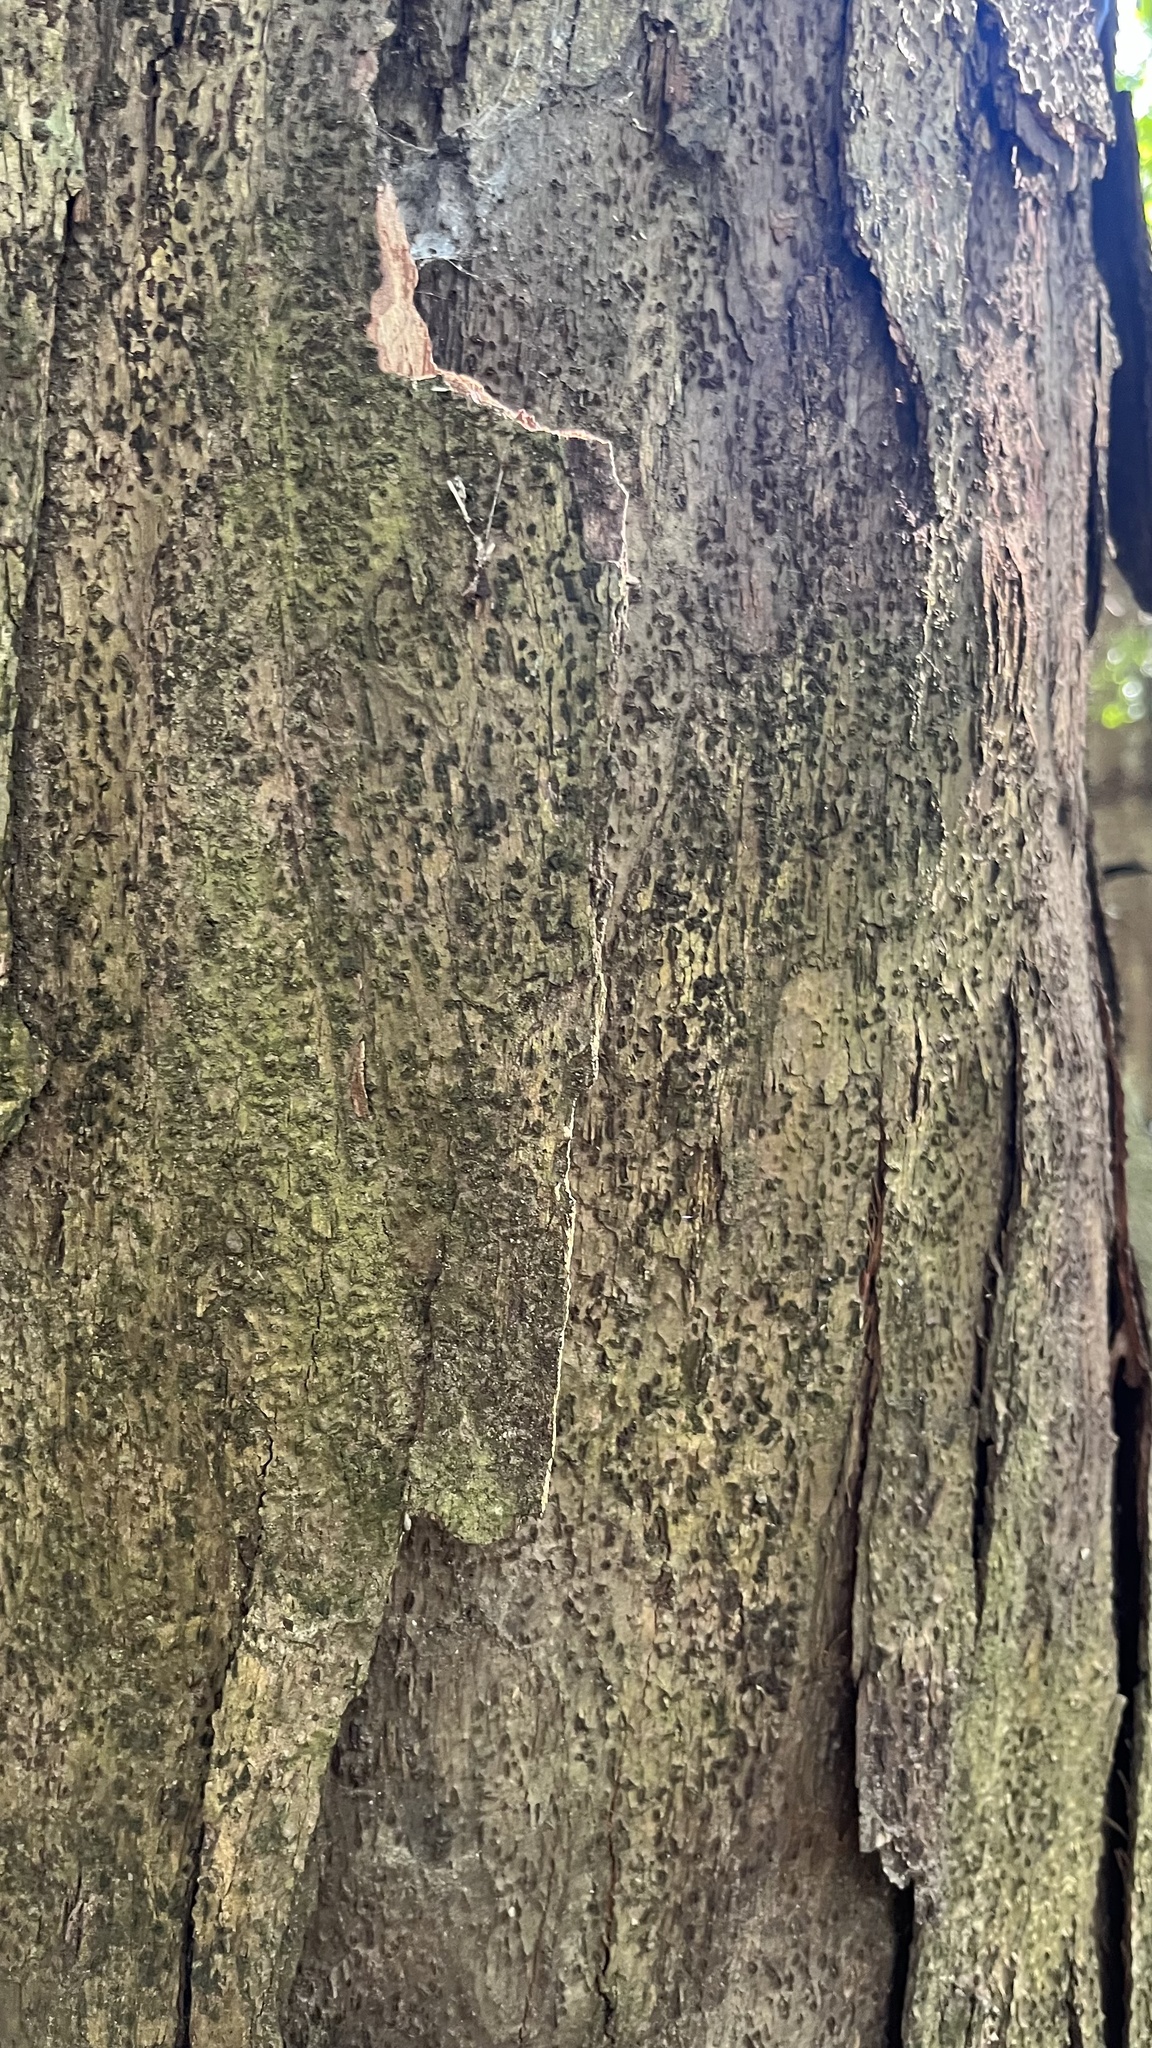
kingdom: Plantae
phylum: Tracheophyta
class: Magnoliopsida
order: Fagales
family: Fagaceae
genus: Castanopsis
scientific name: Castanopsis kawakamii
